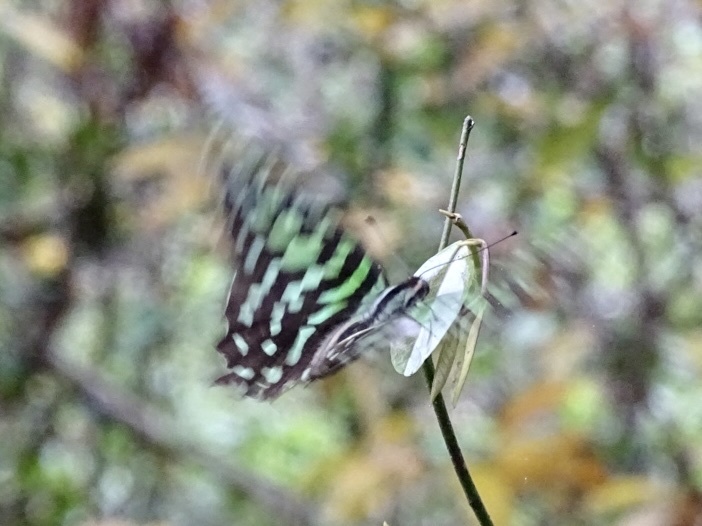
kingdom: Animalia
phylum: Arthropoda
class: Insecta
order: Lepidoptera
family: Papilionidae
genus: Graphium
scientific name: Graphium agamemnon
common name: Tailed jay
